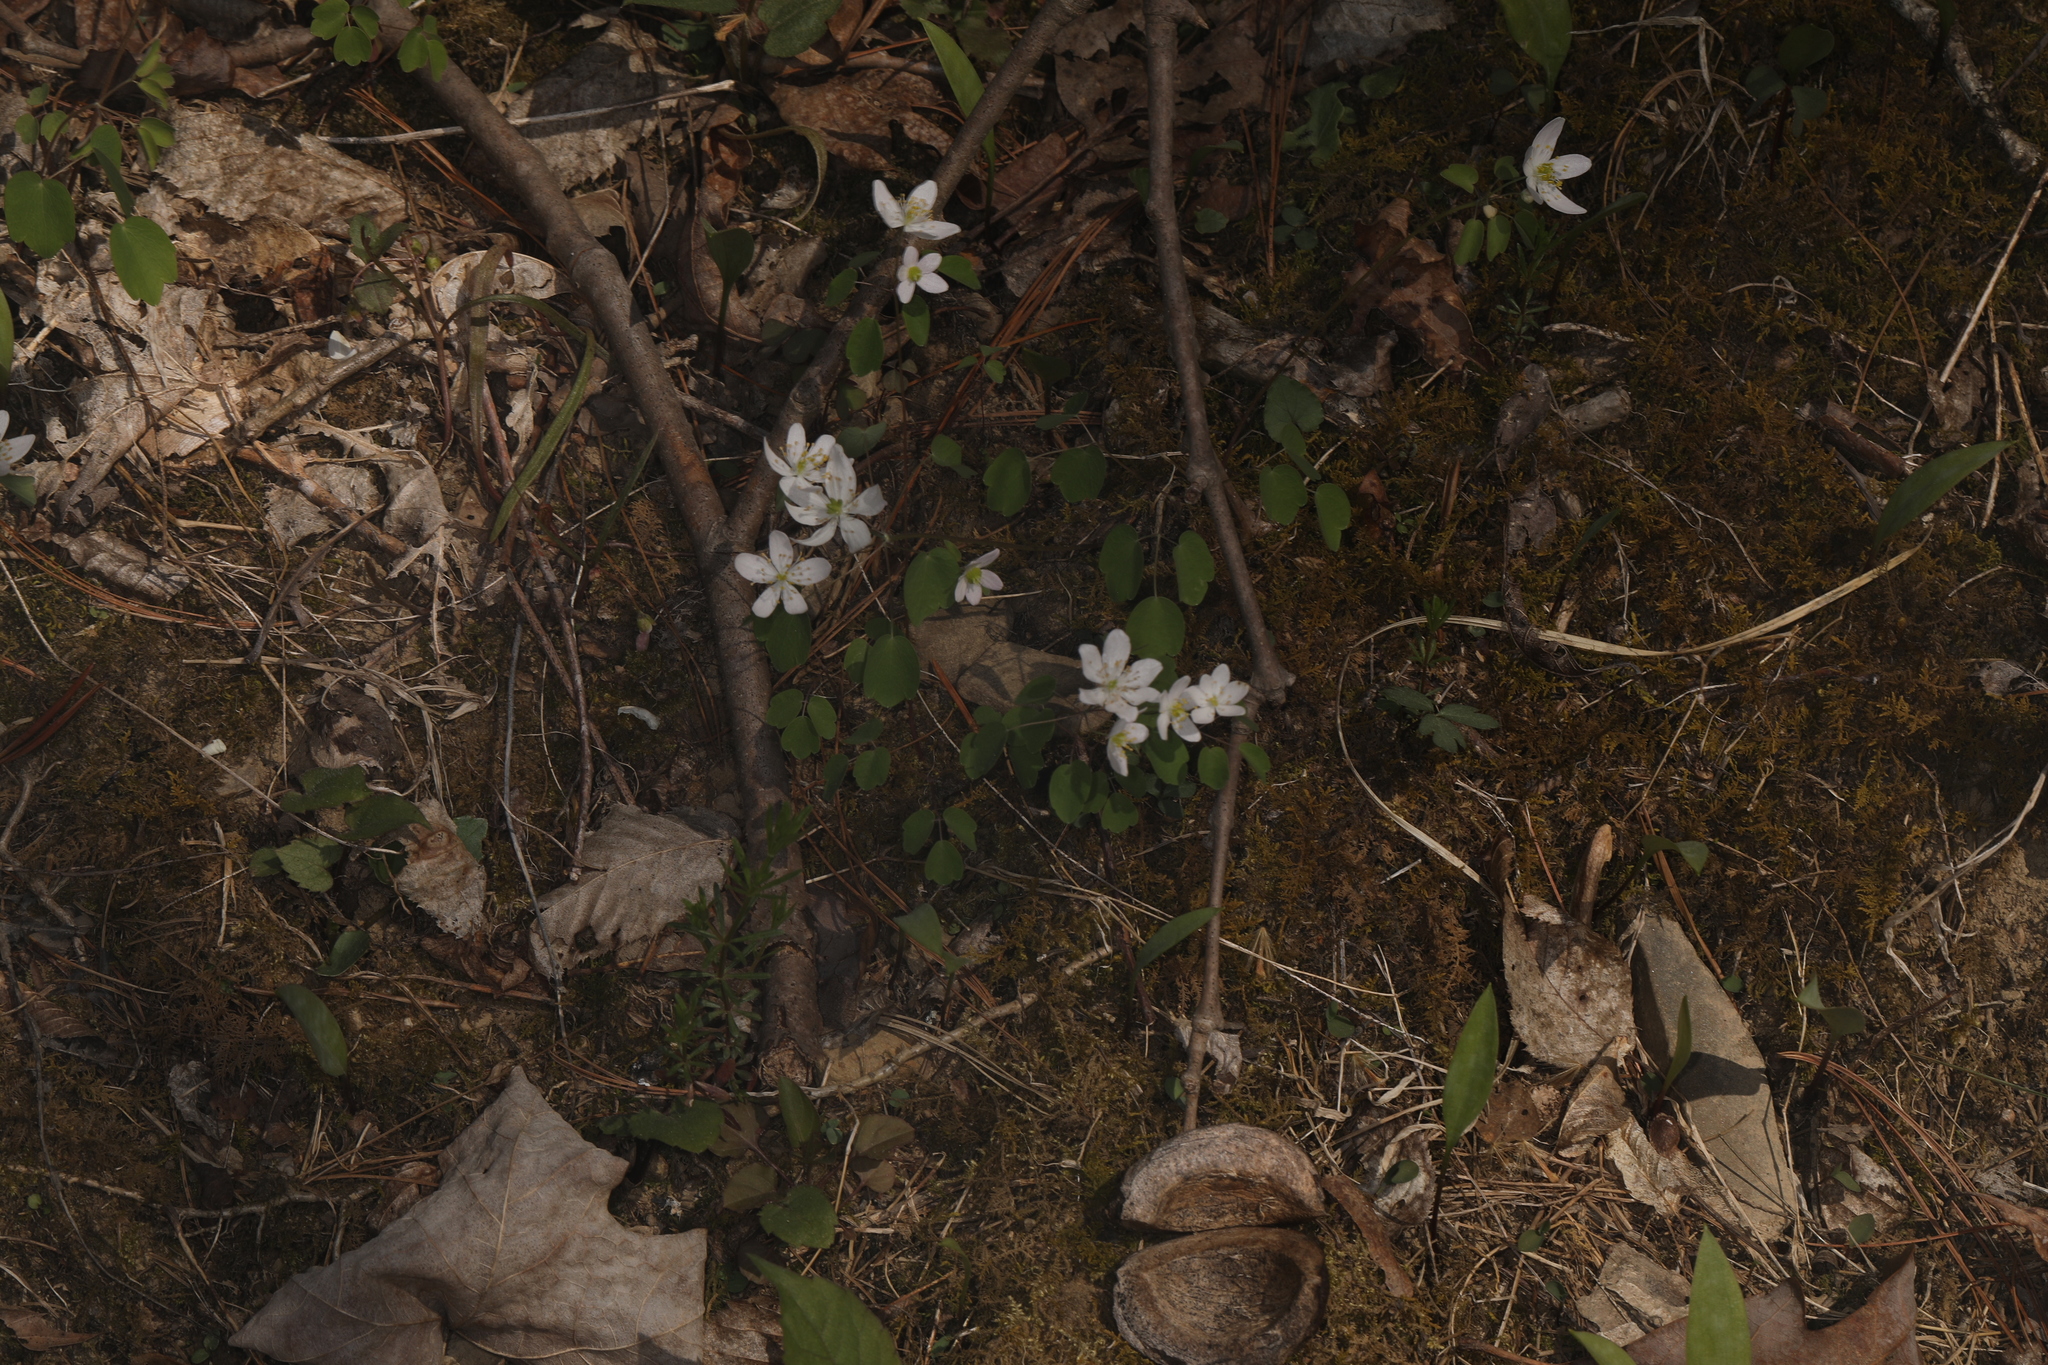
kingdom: Plantae
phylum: Tracheophyta
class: Magnoliopsida
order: Ranunculales
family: Ranunculaceae
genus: Thalictrum
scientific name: Thalictrum thalictroides
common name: Rue-anemone
